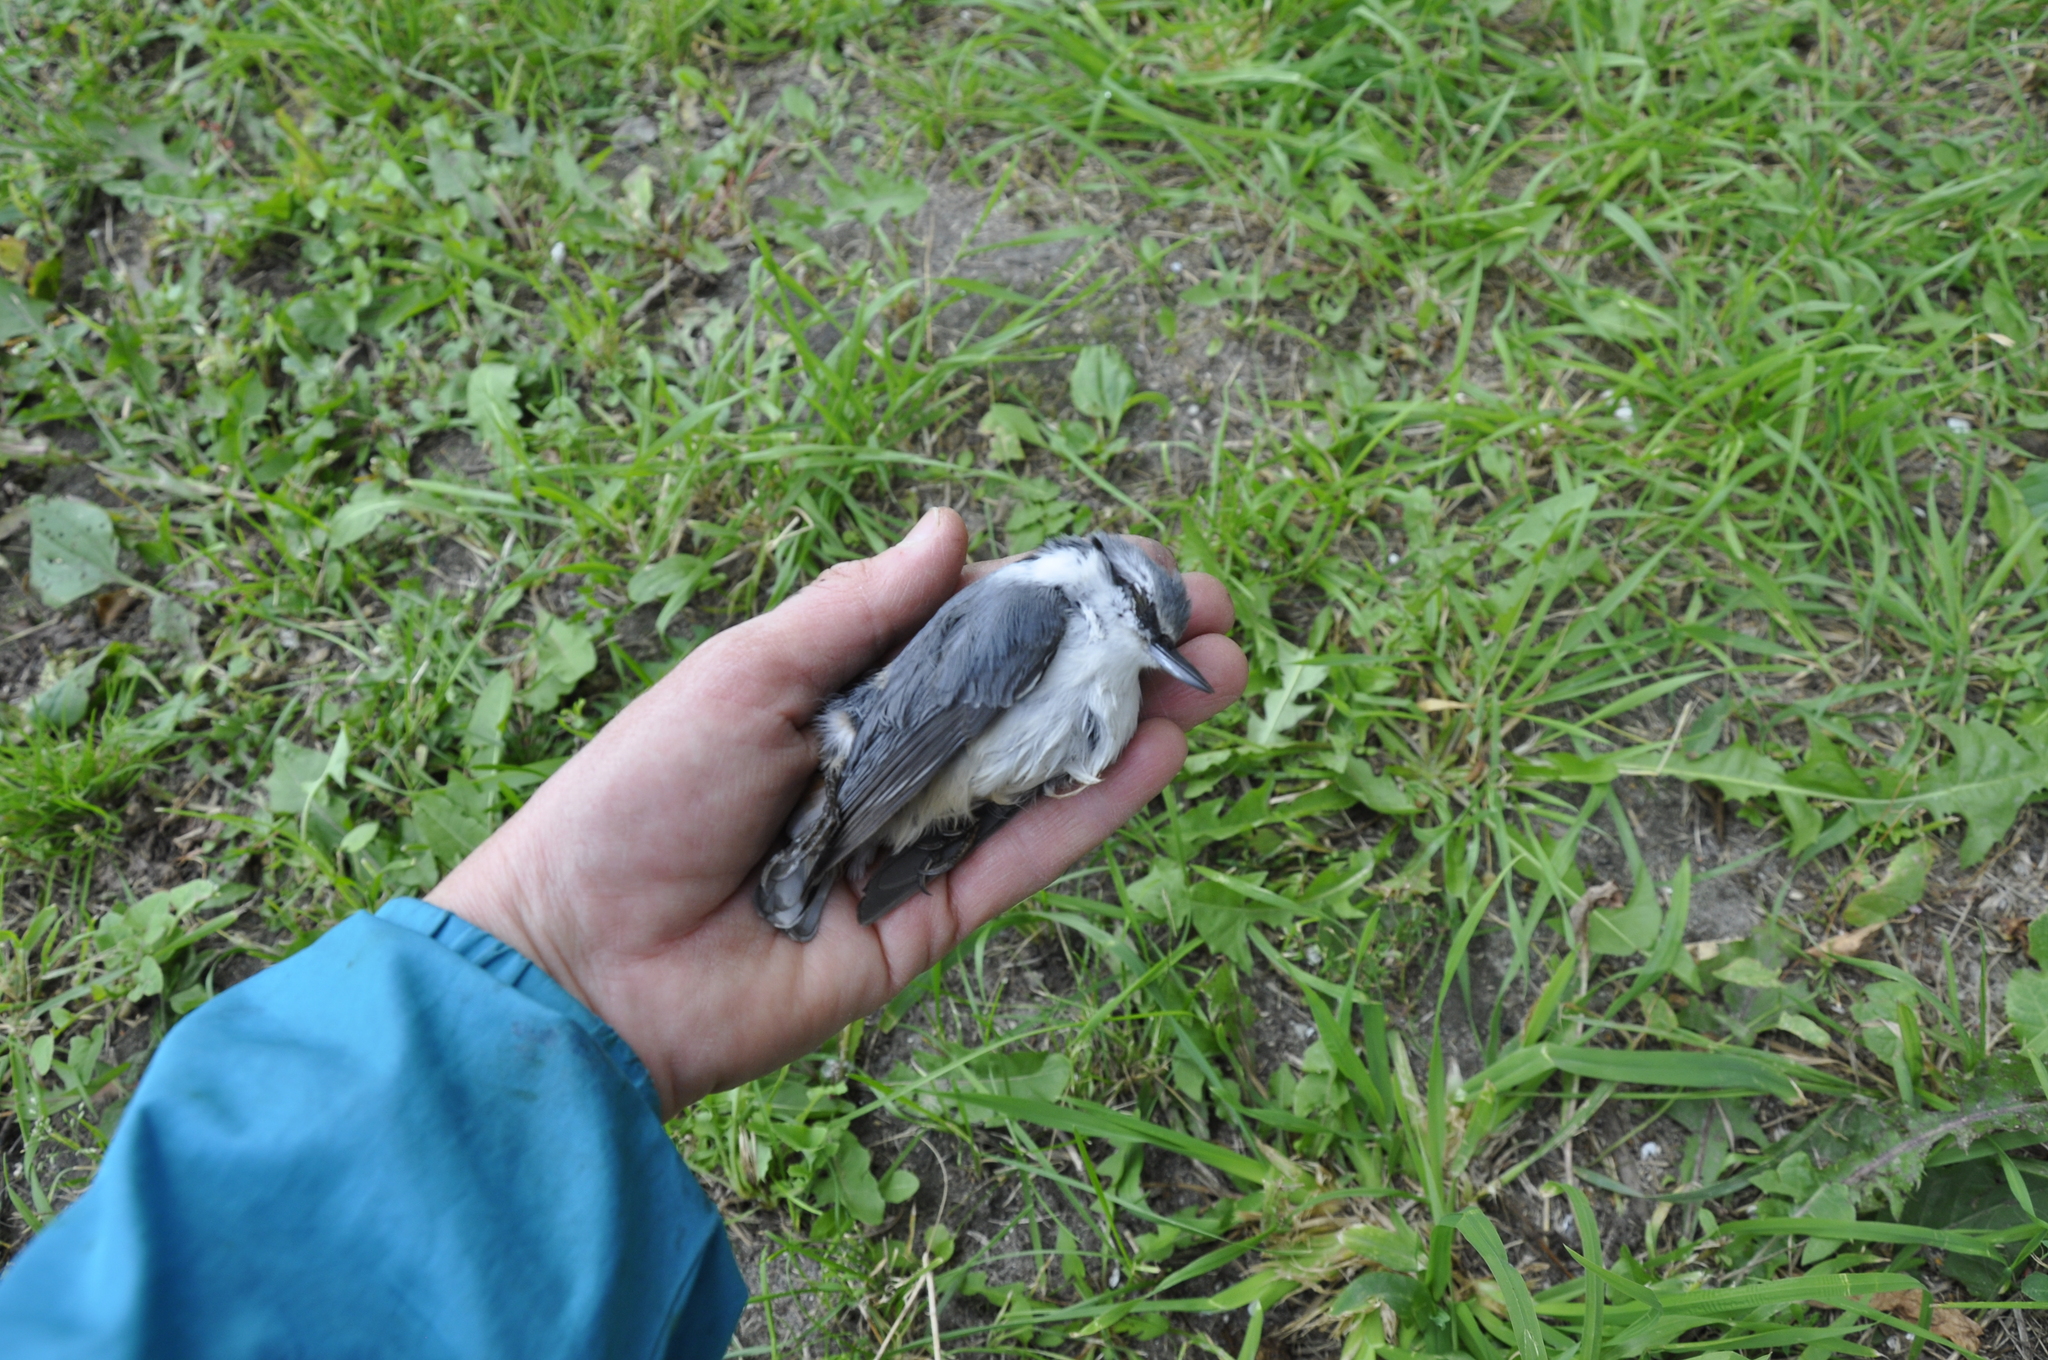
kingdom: Animalia
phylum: Chordata
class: Aves
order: Passeriformes
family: Sittidae
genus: Sitta
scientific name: Sitta europaea
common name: Eurasian nuthatch
